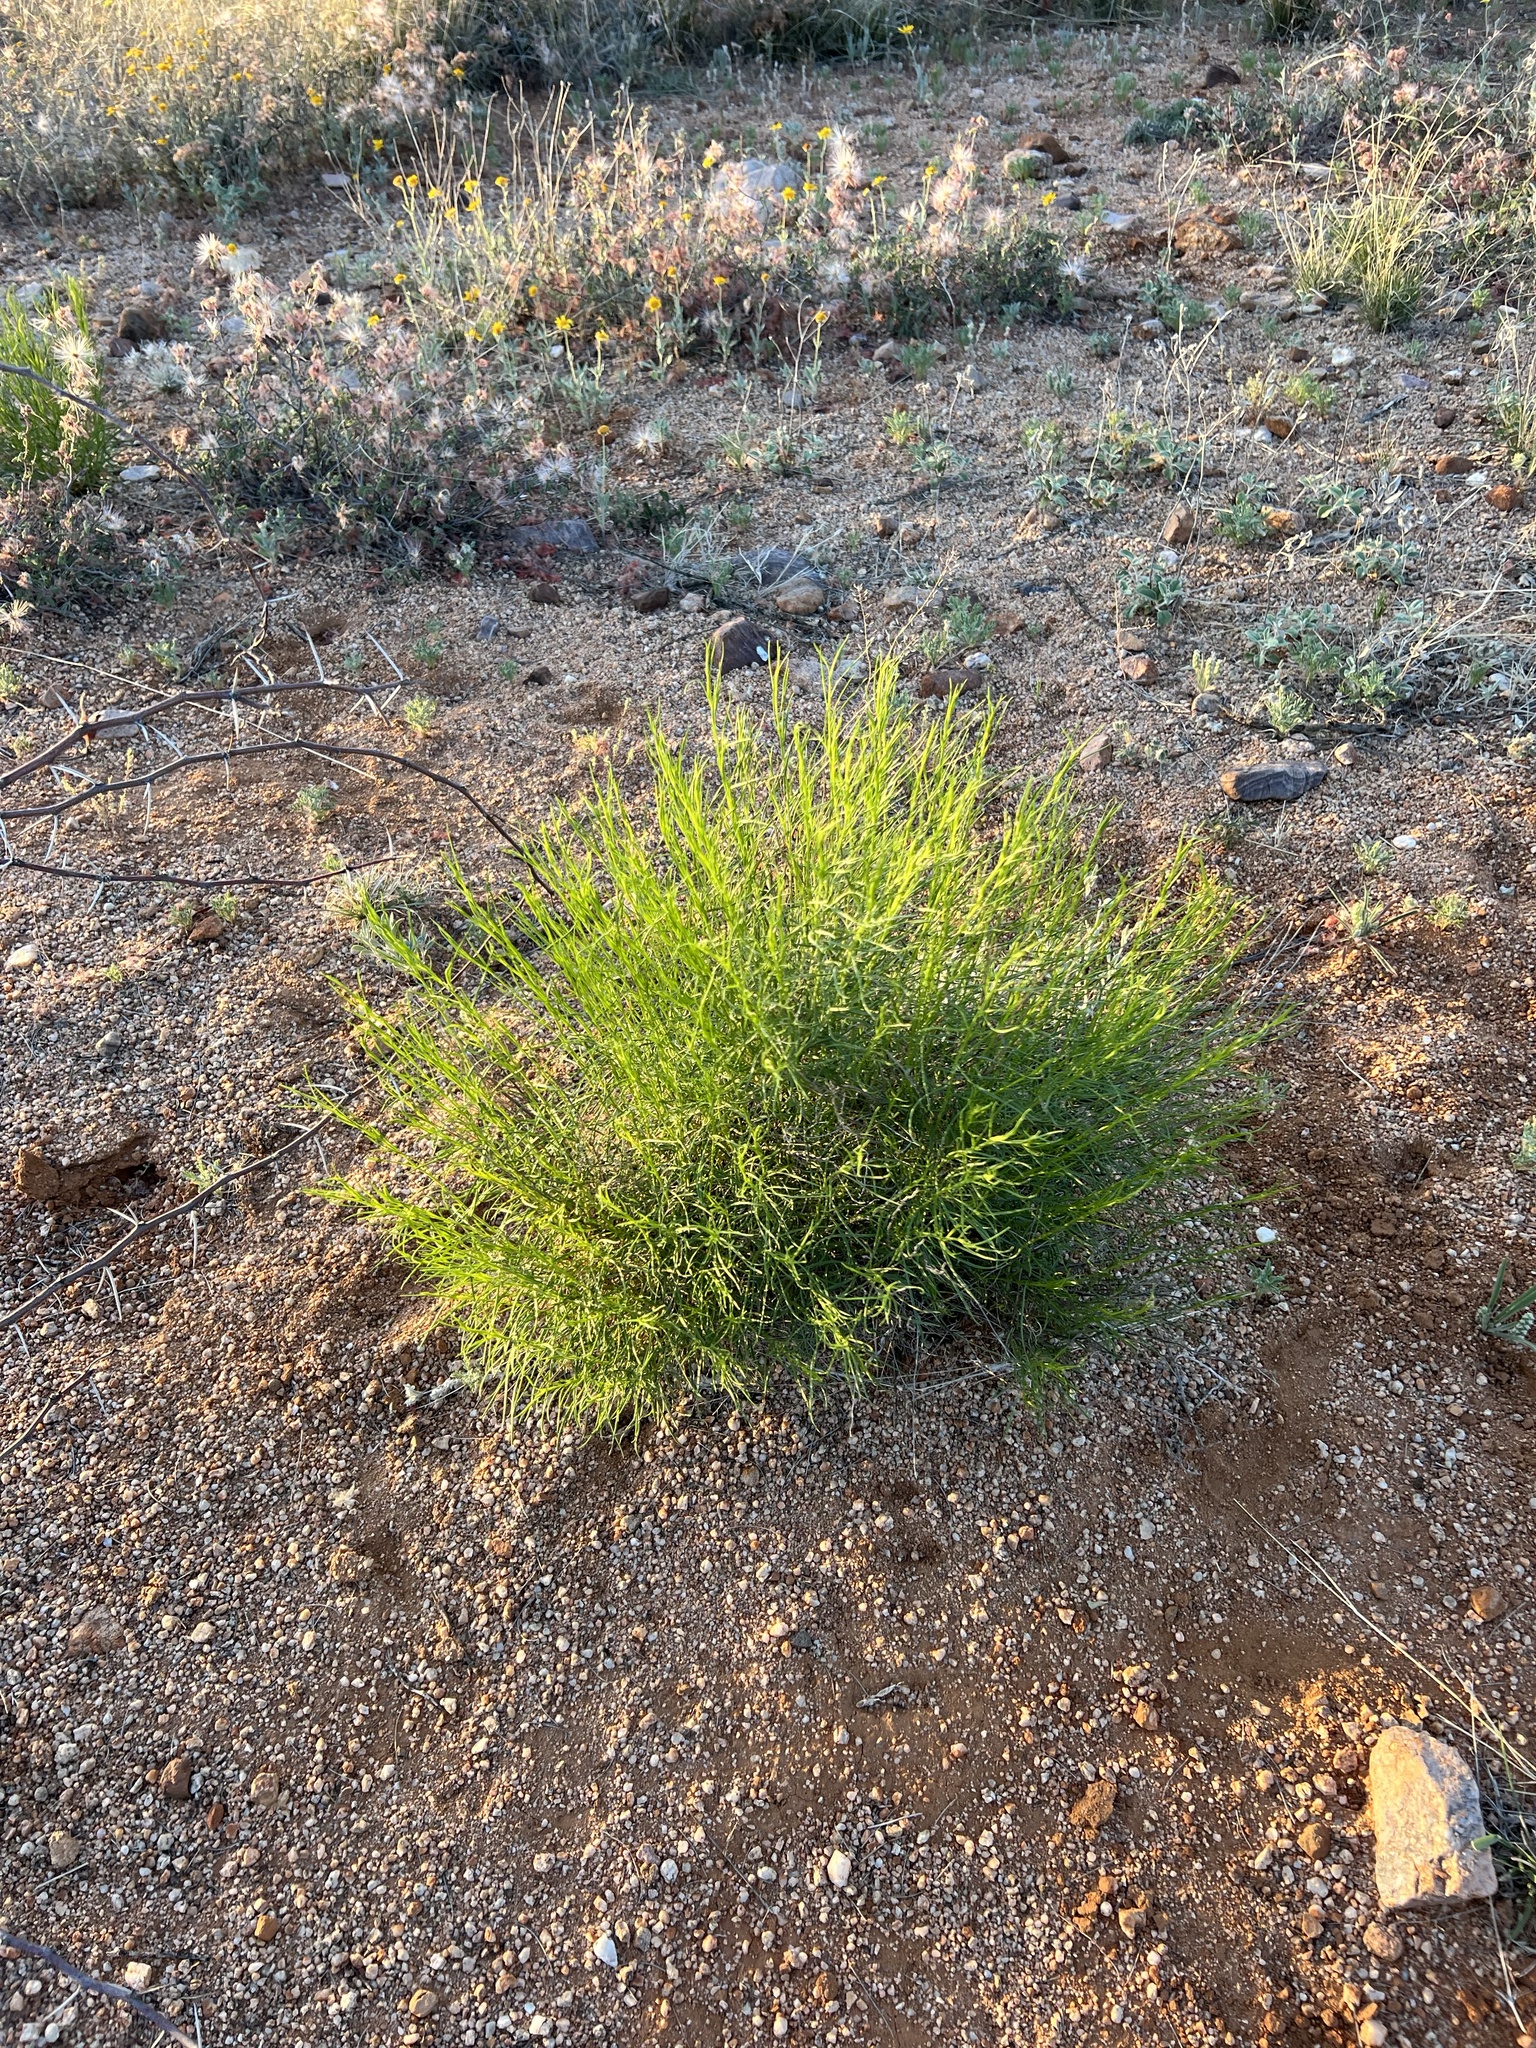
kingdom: Plantae
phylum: Tracheophyta
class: Magnoliopsida
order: Asterales
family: Asteraceae
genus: Gutierrezia
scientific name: Gutierrezia sarothrae
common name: Broom snakeweed
